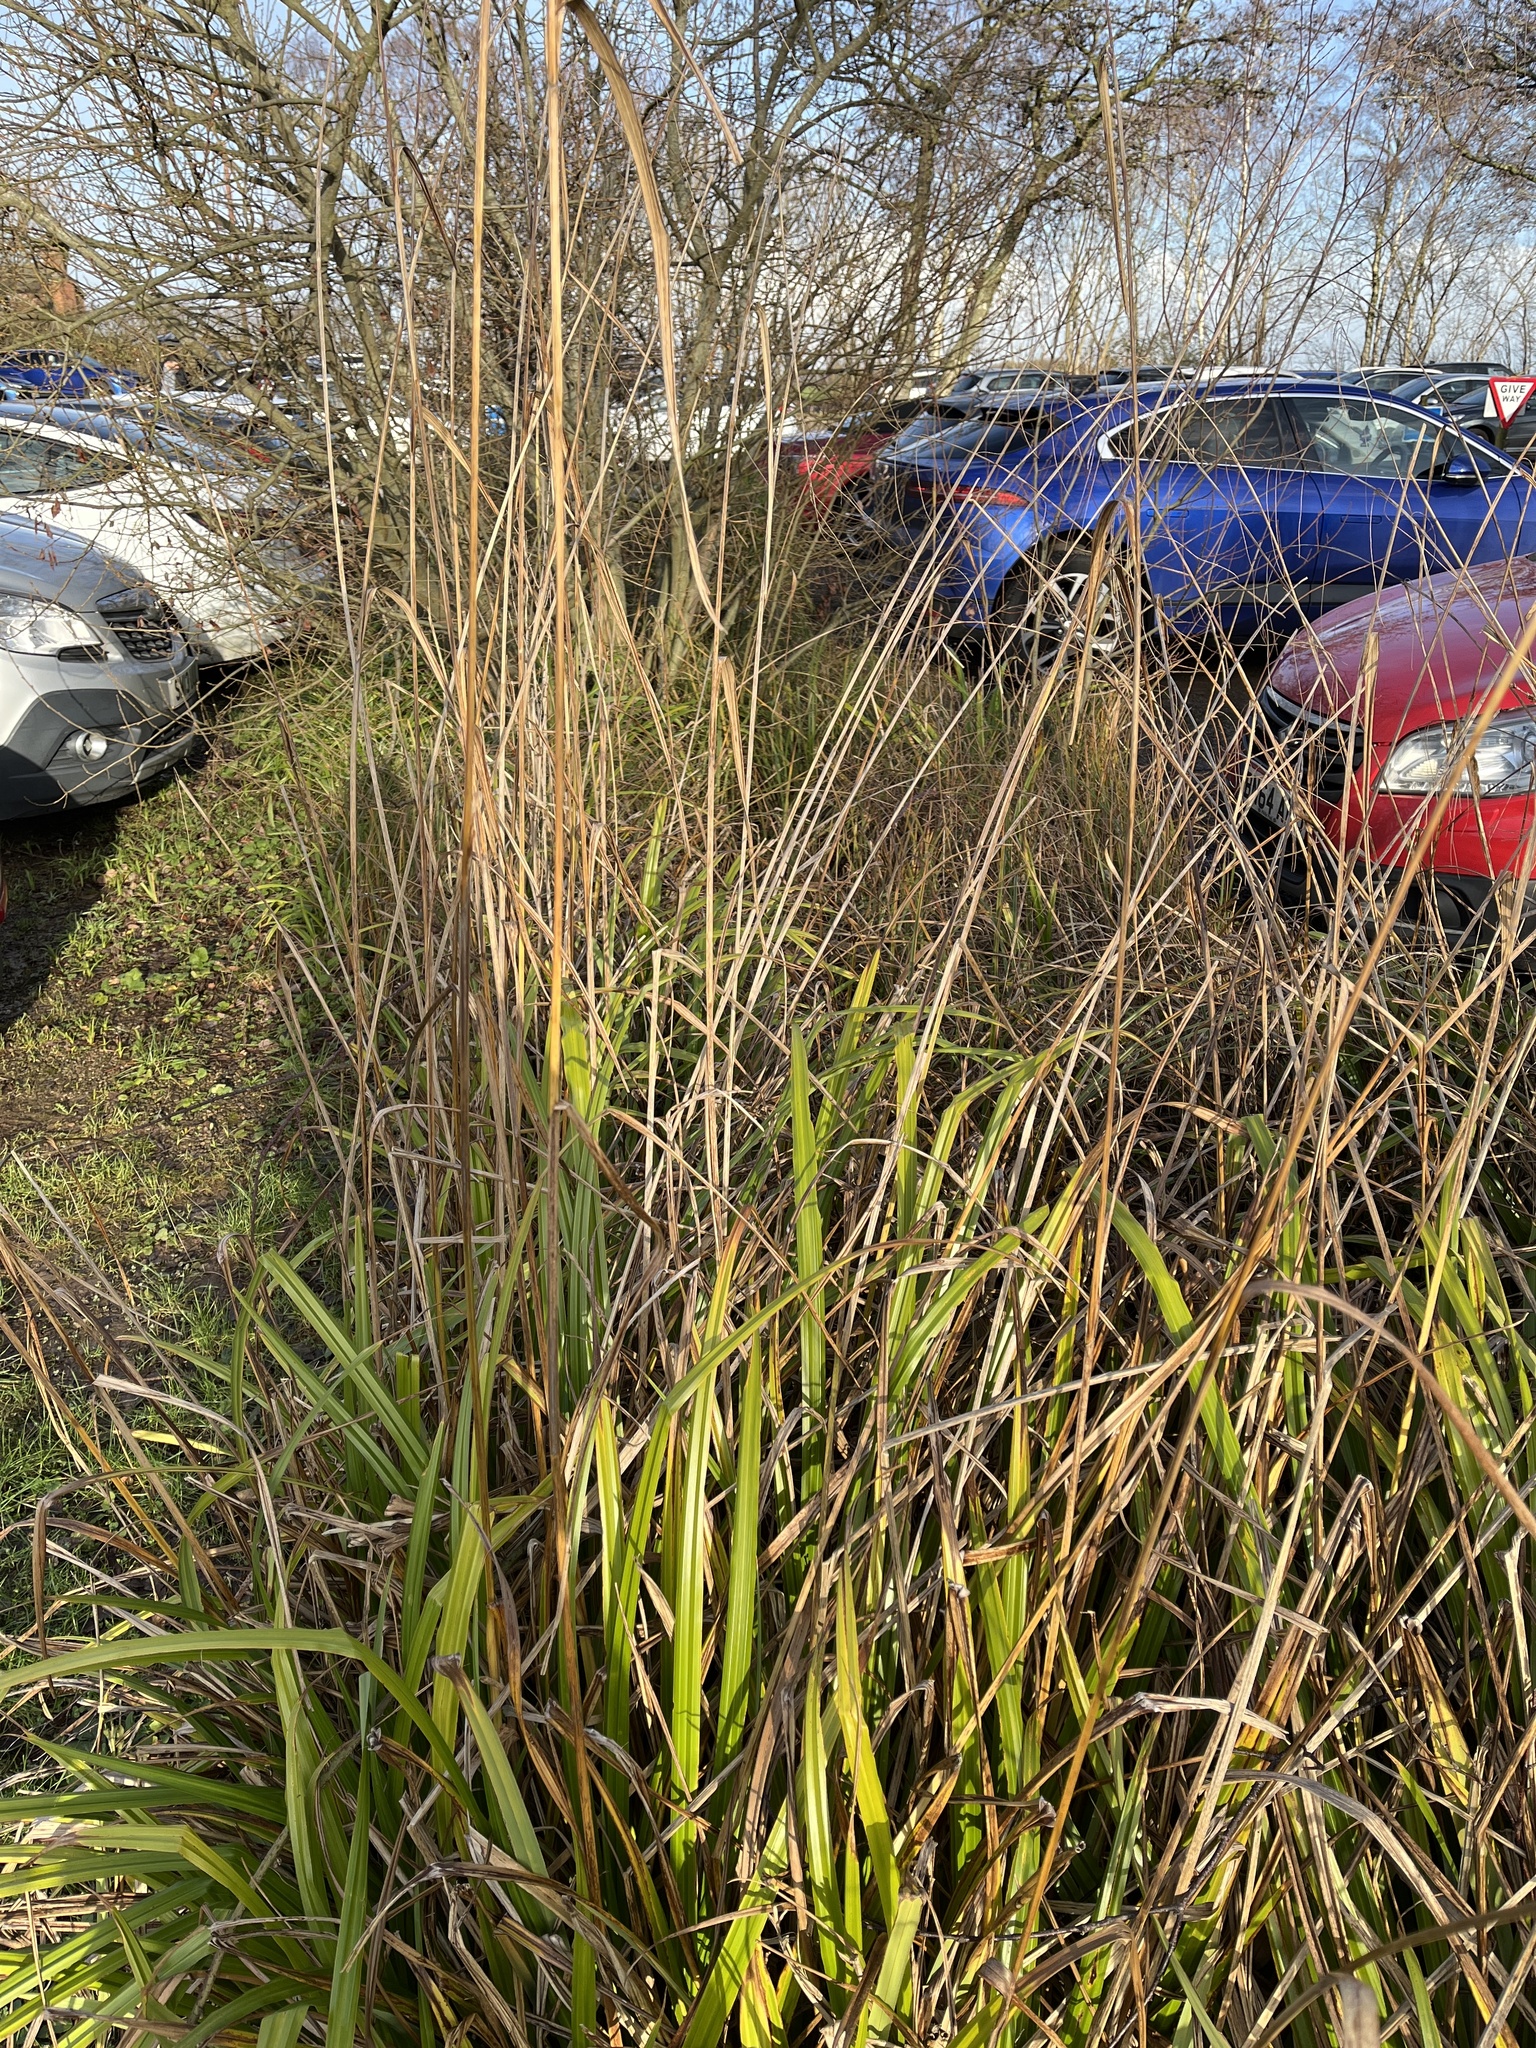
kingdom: Plantae
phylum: Tracheophyta
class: Liliopsida
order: Poales
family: Cyperaceae
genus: Carex
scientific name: Carex pendula
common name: Pendulous sedge
